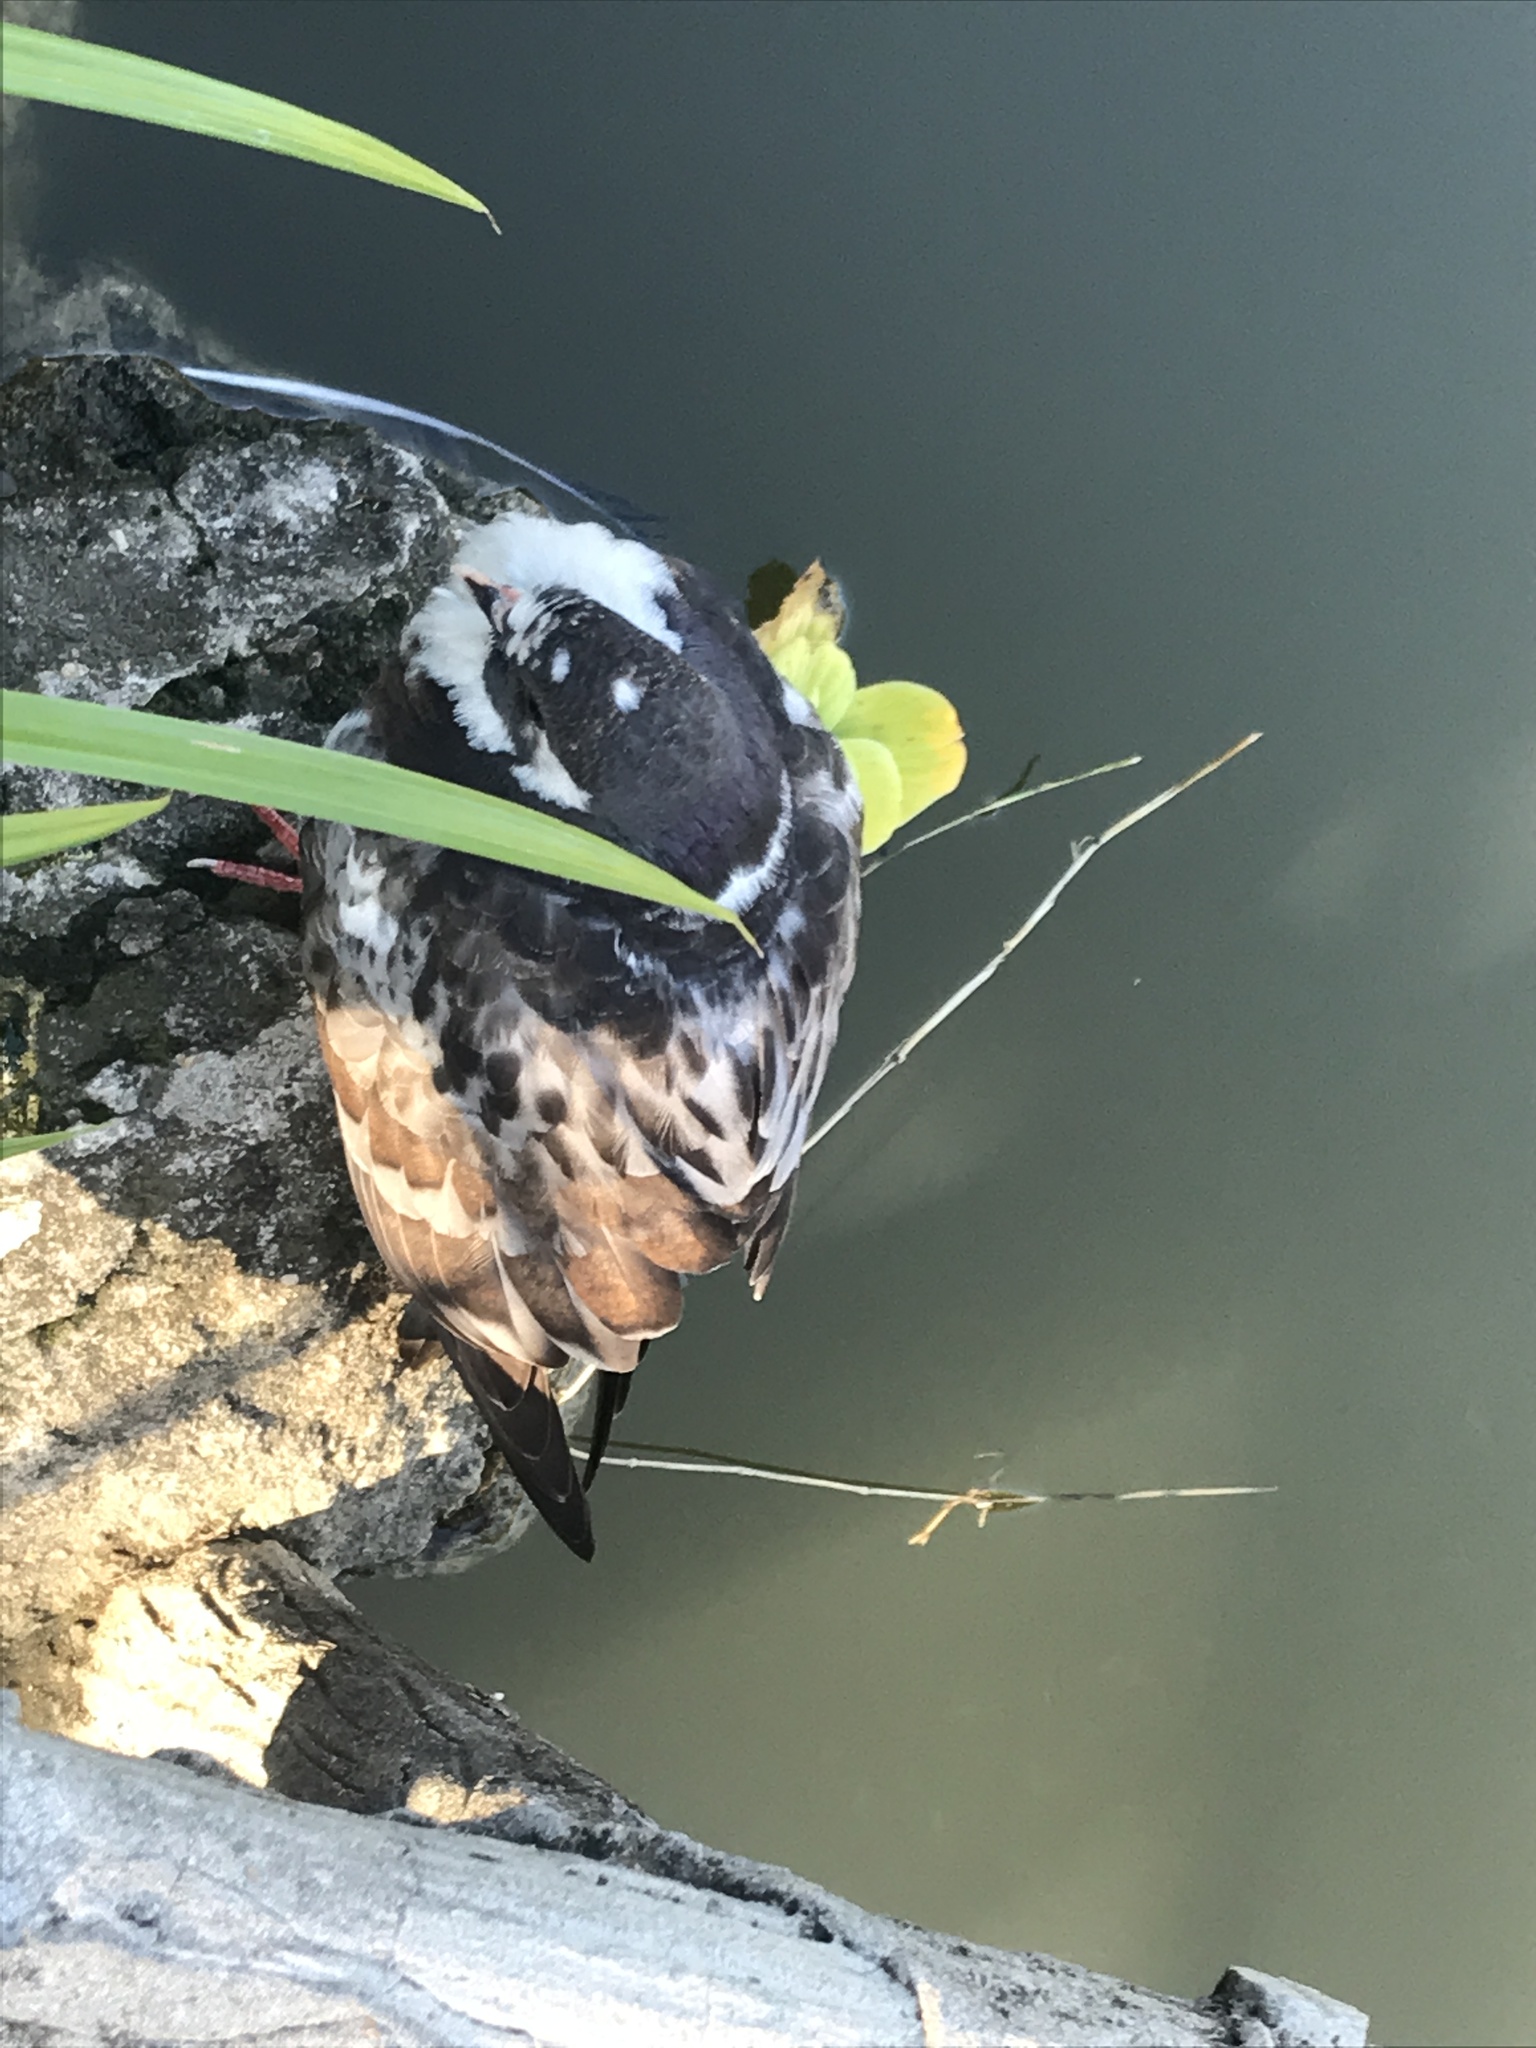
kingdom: Animalia
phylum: Chordata
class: Aves
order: Columbiformes
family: Columbidae
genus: Columba
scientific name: Columba livia
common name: Rock pigeon
